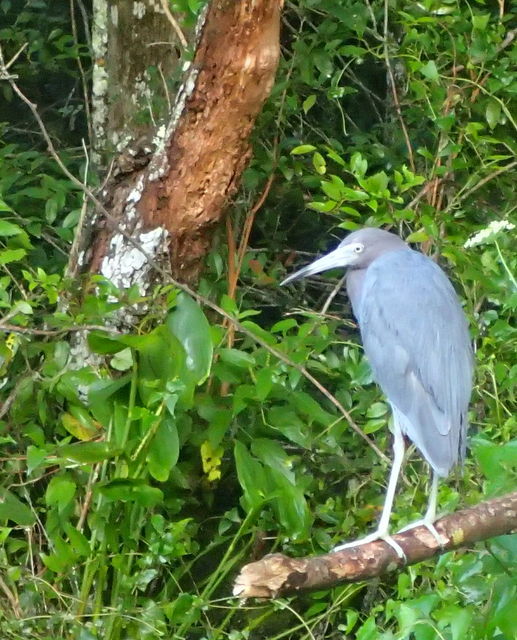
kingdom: Animalia
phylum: Chordata
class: Aves
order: Pelecaniformes
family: Ardeidae
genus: Egretta
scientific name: Egretta caerulea
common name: Little blue heron
